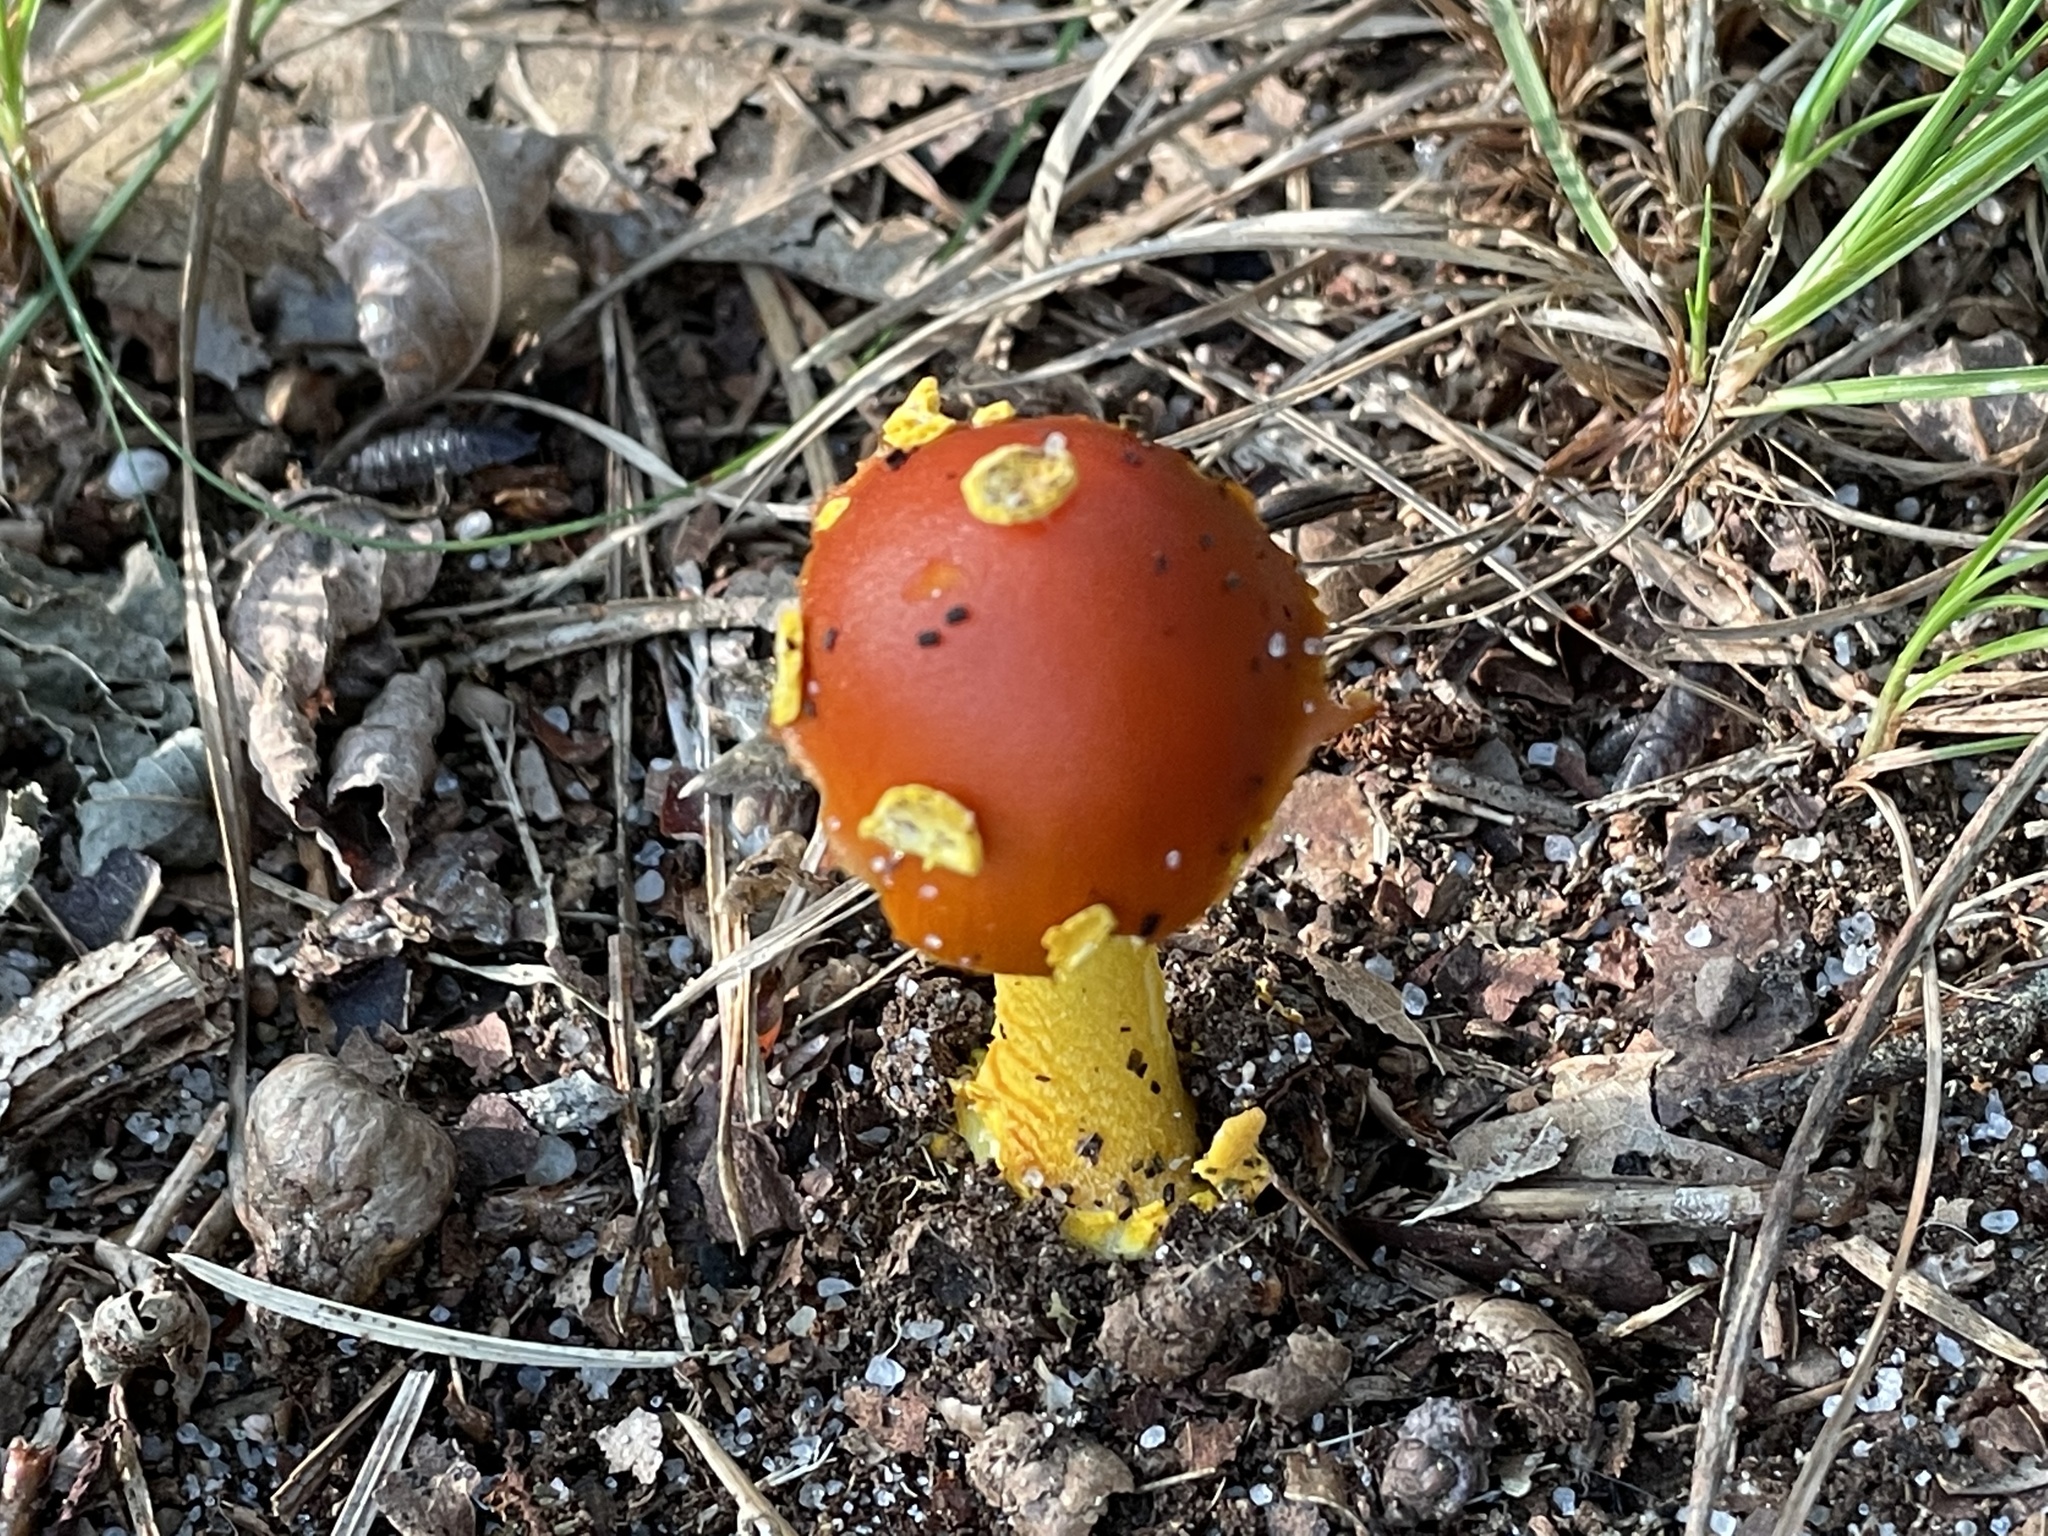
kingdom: Fungi
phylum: Basidiomycota
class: Agaricomycetes
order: Agaricales
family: Amanitaceae
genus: Amanita
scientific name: Amanita erythrocephala
